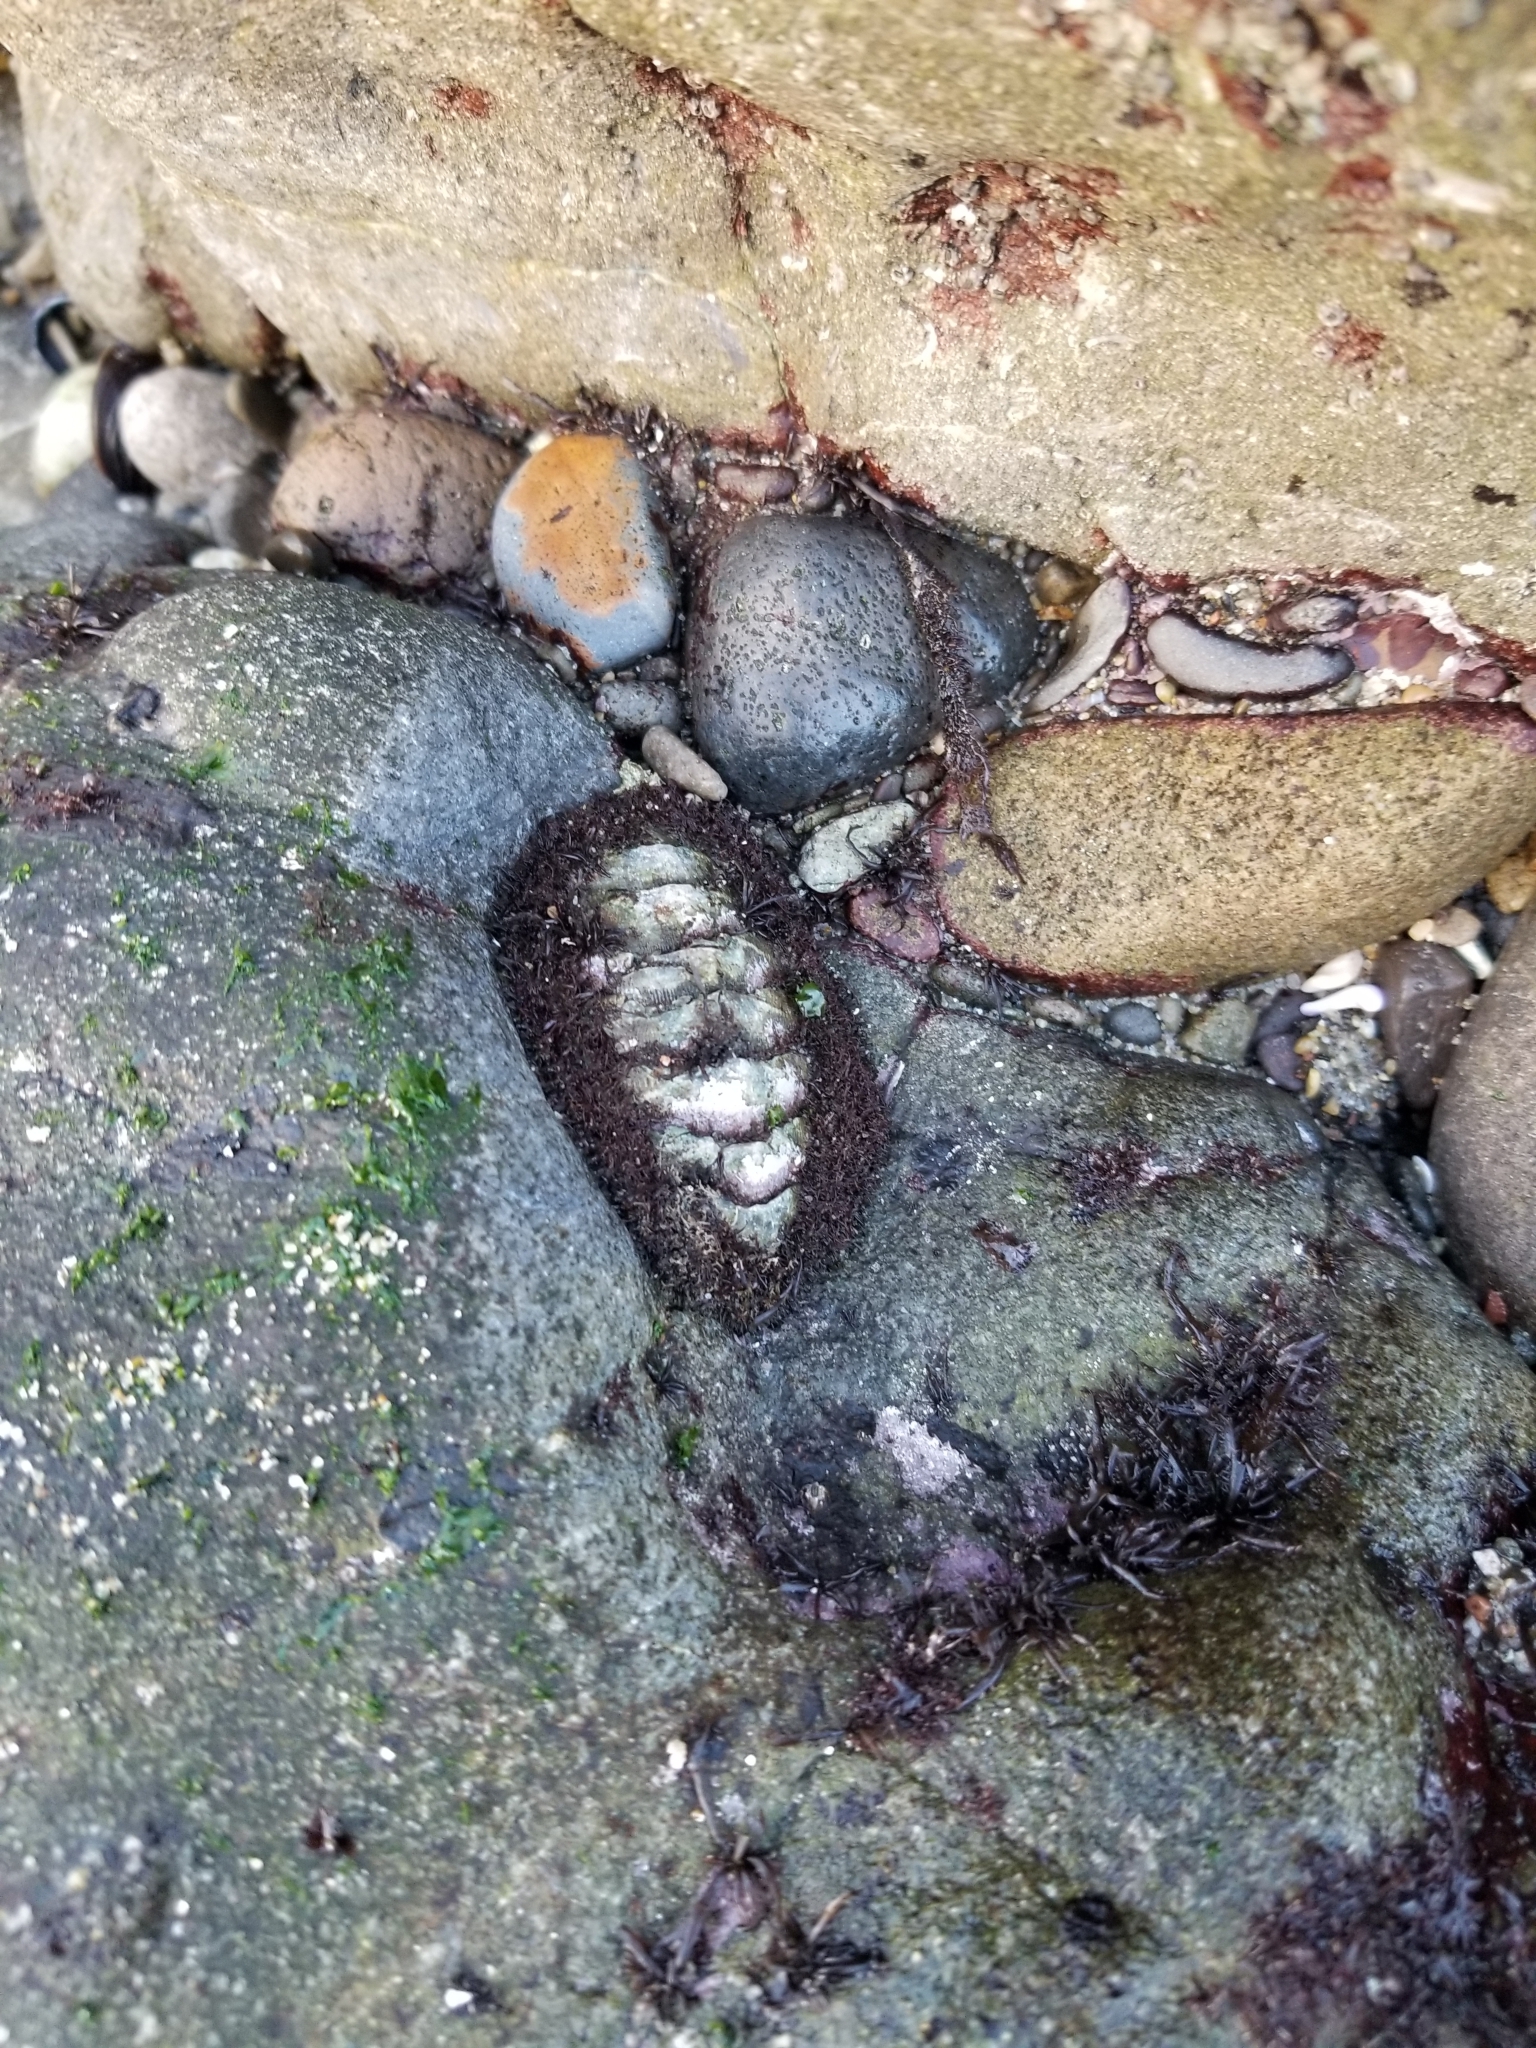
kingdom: Animalia
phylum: Mollusca
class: Polyplacophora
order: Chitonida
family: Mopaliidae
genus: Mopalia
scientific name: Mopalia muscosa
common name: Mossy chiton
